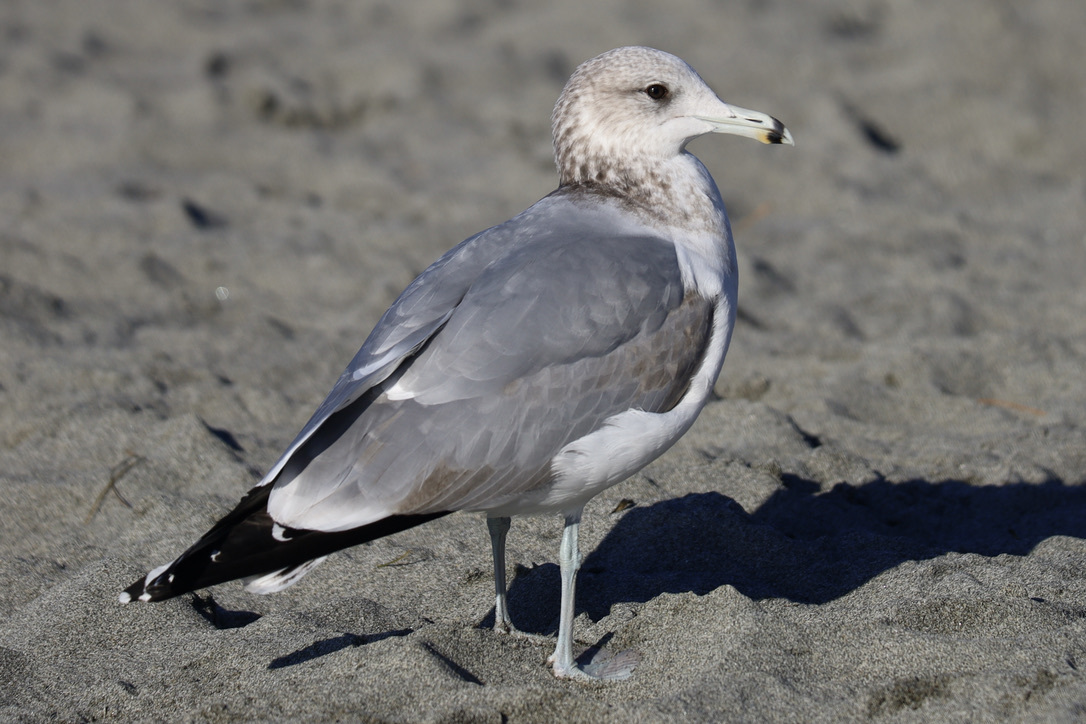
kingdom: Animalia
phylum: Chordata
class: Aves
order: Charadriiformes
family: Laridae
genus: Larus
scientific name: Larus californicus
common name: California gull
